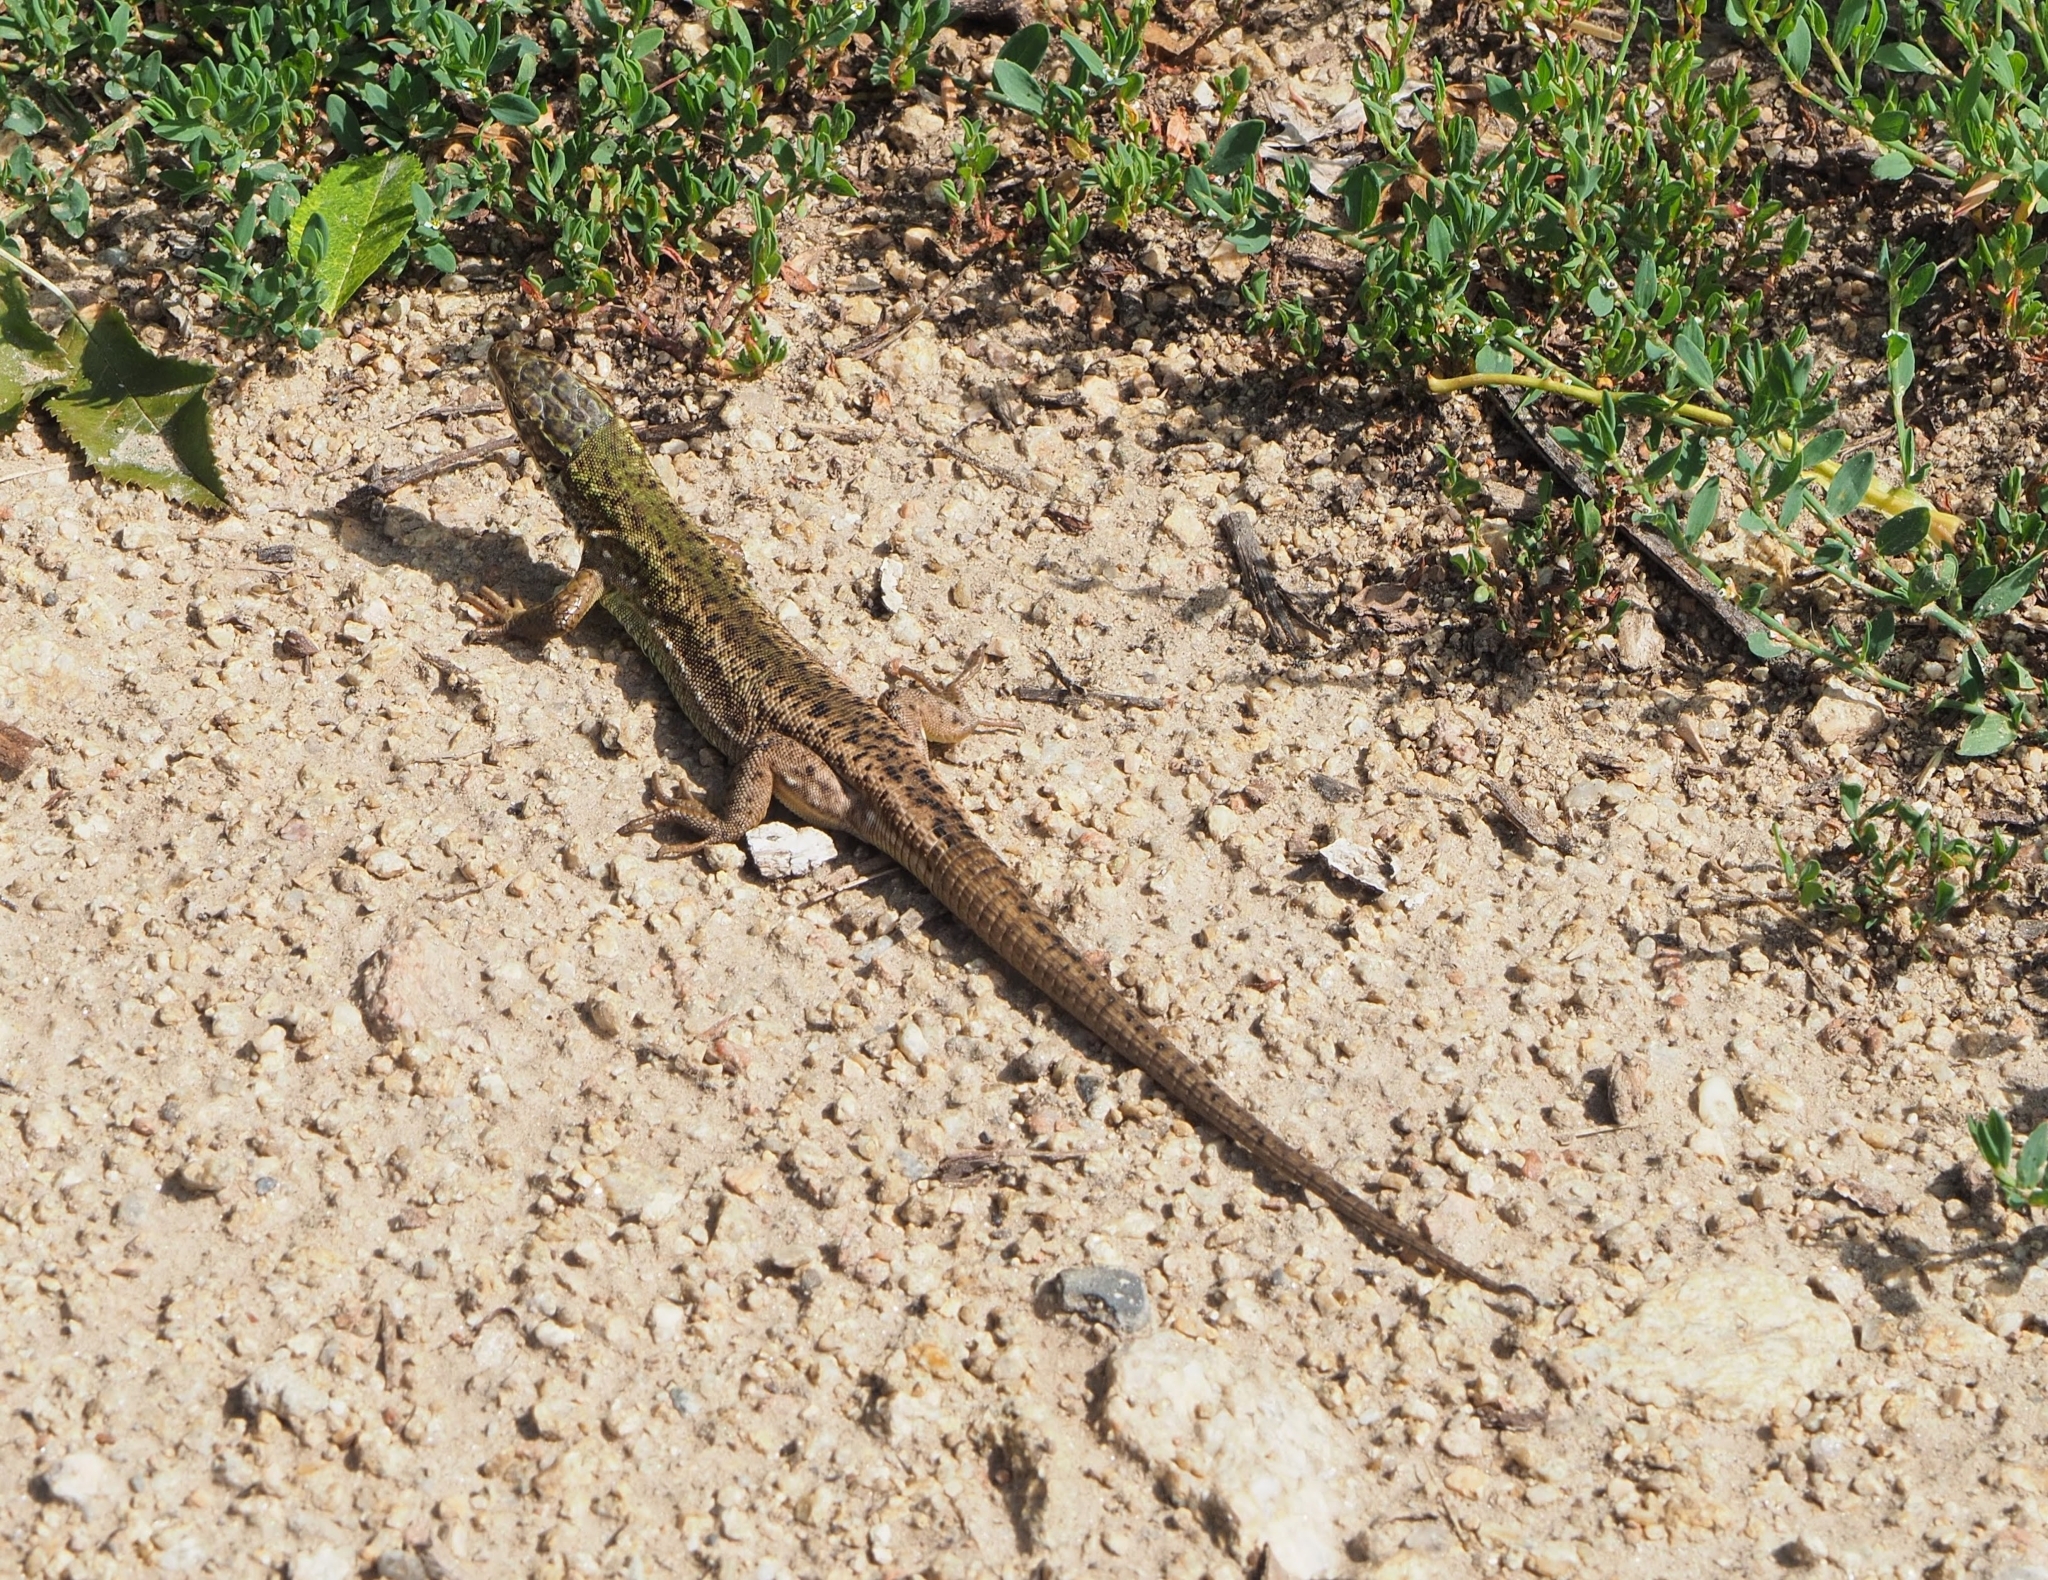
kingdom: Animalia
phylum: Chordata
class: Squamata
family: Lacertidae
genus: Lacerta
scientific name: Lacerta viridis
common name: European green lizard
